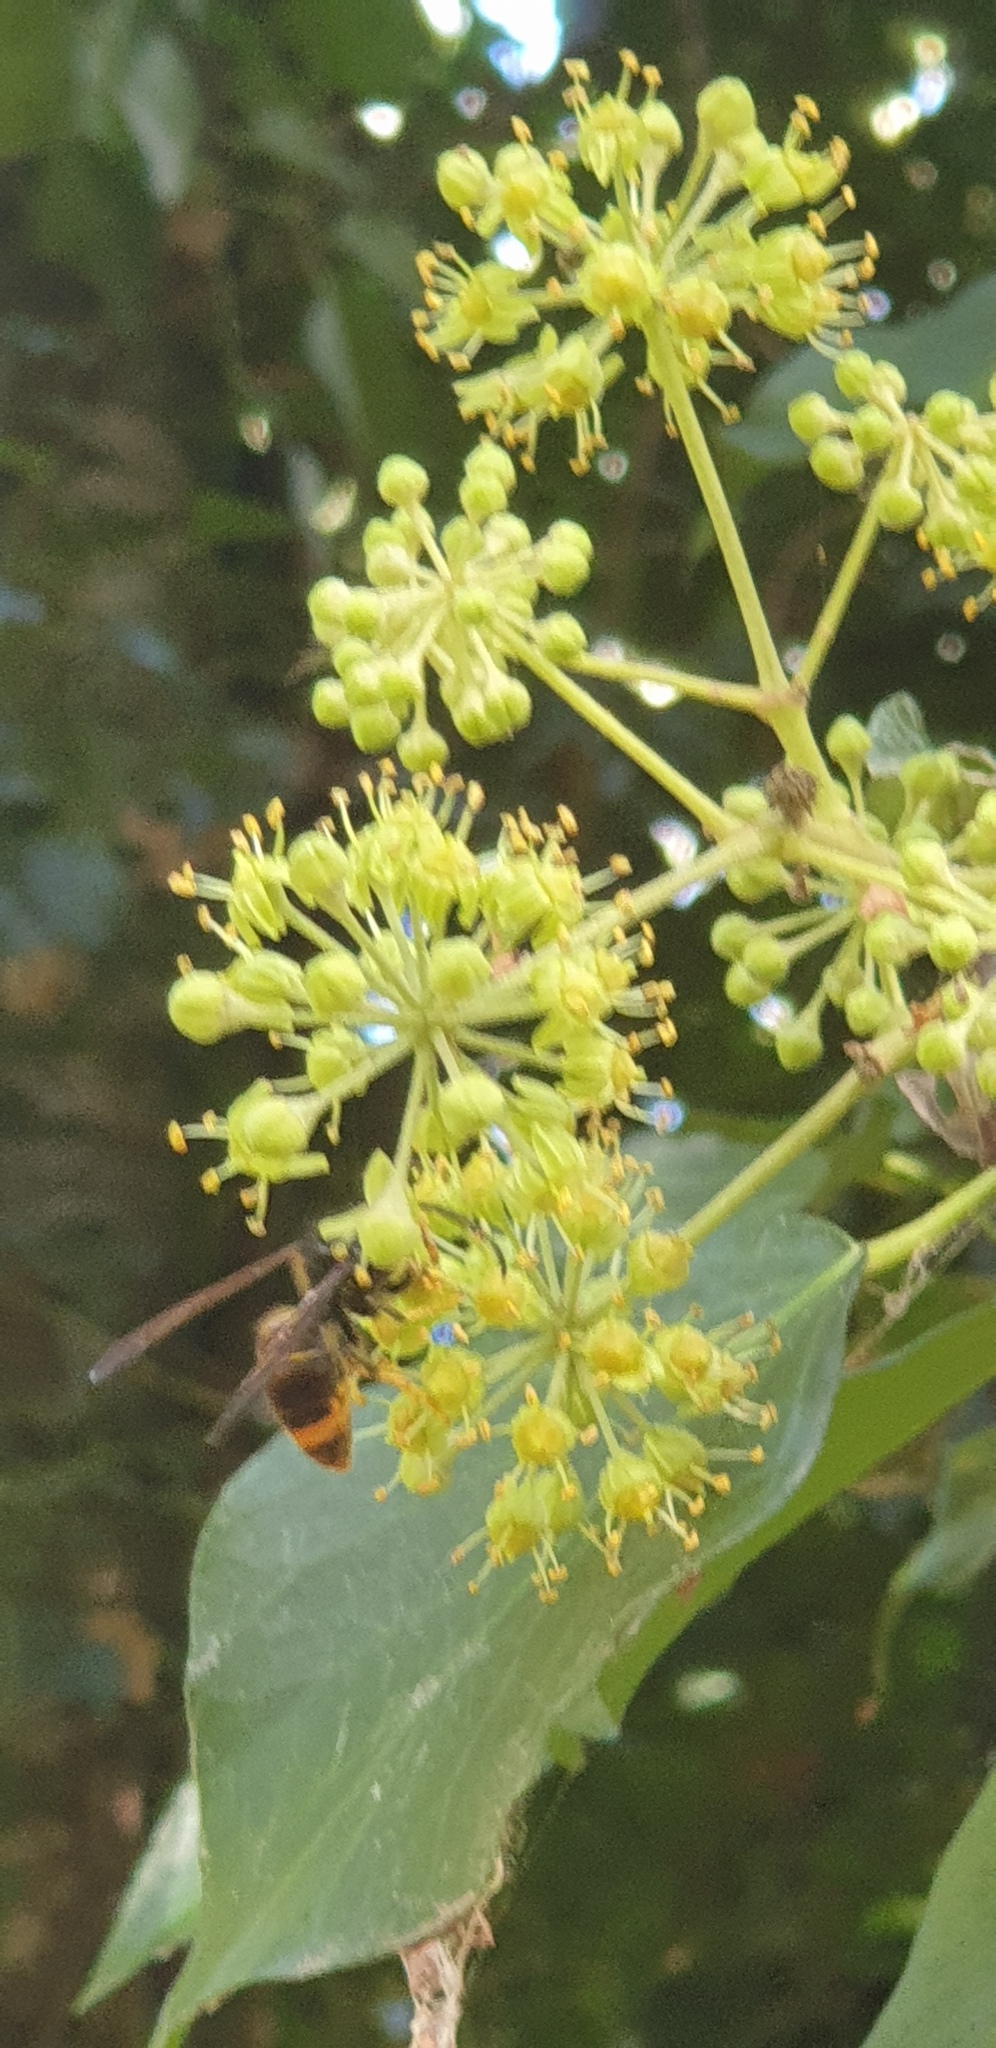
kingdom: Animalia
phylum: Arthropoda
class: Insecta
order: Hymenoptera
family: Vespidae
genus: Vespa
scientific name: Vespa velutina
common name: Asian hornet
